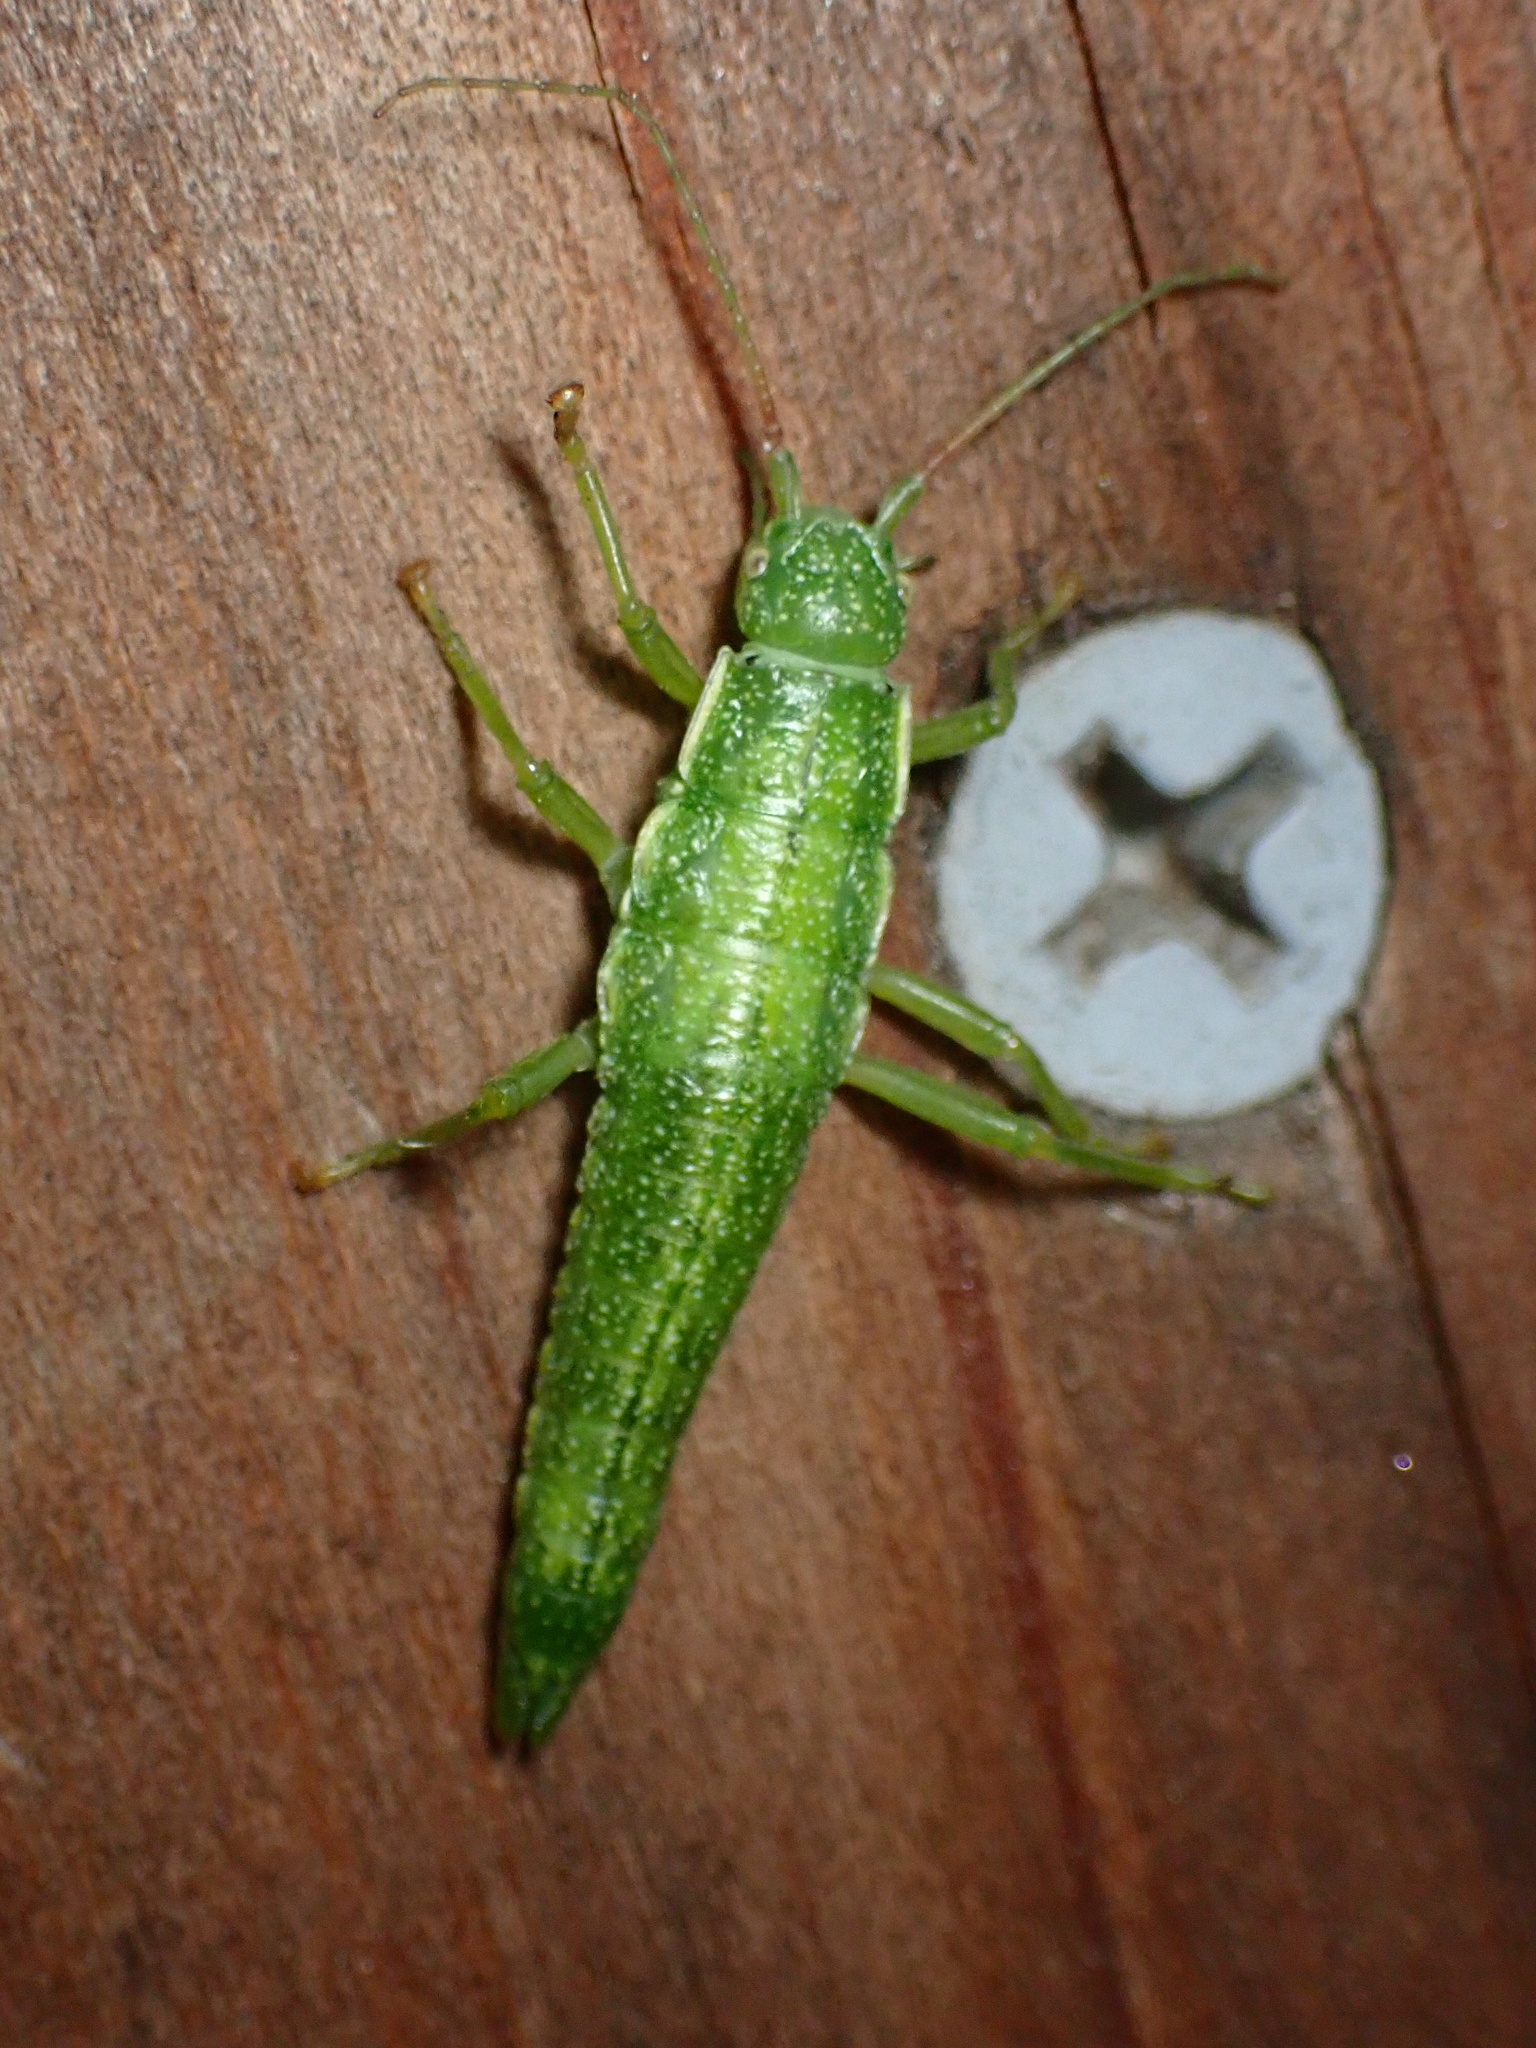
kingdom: Animalia
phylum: Arthropoda
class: Insecta
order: Phasmida
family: Timematidae
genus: Timema
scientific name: Timema californicum
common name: California timema
